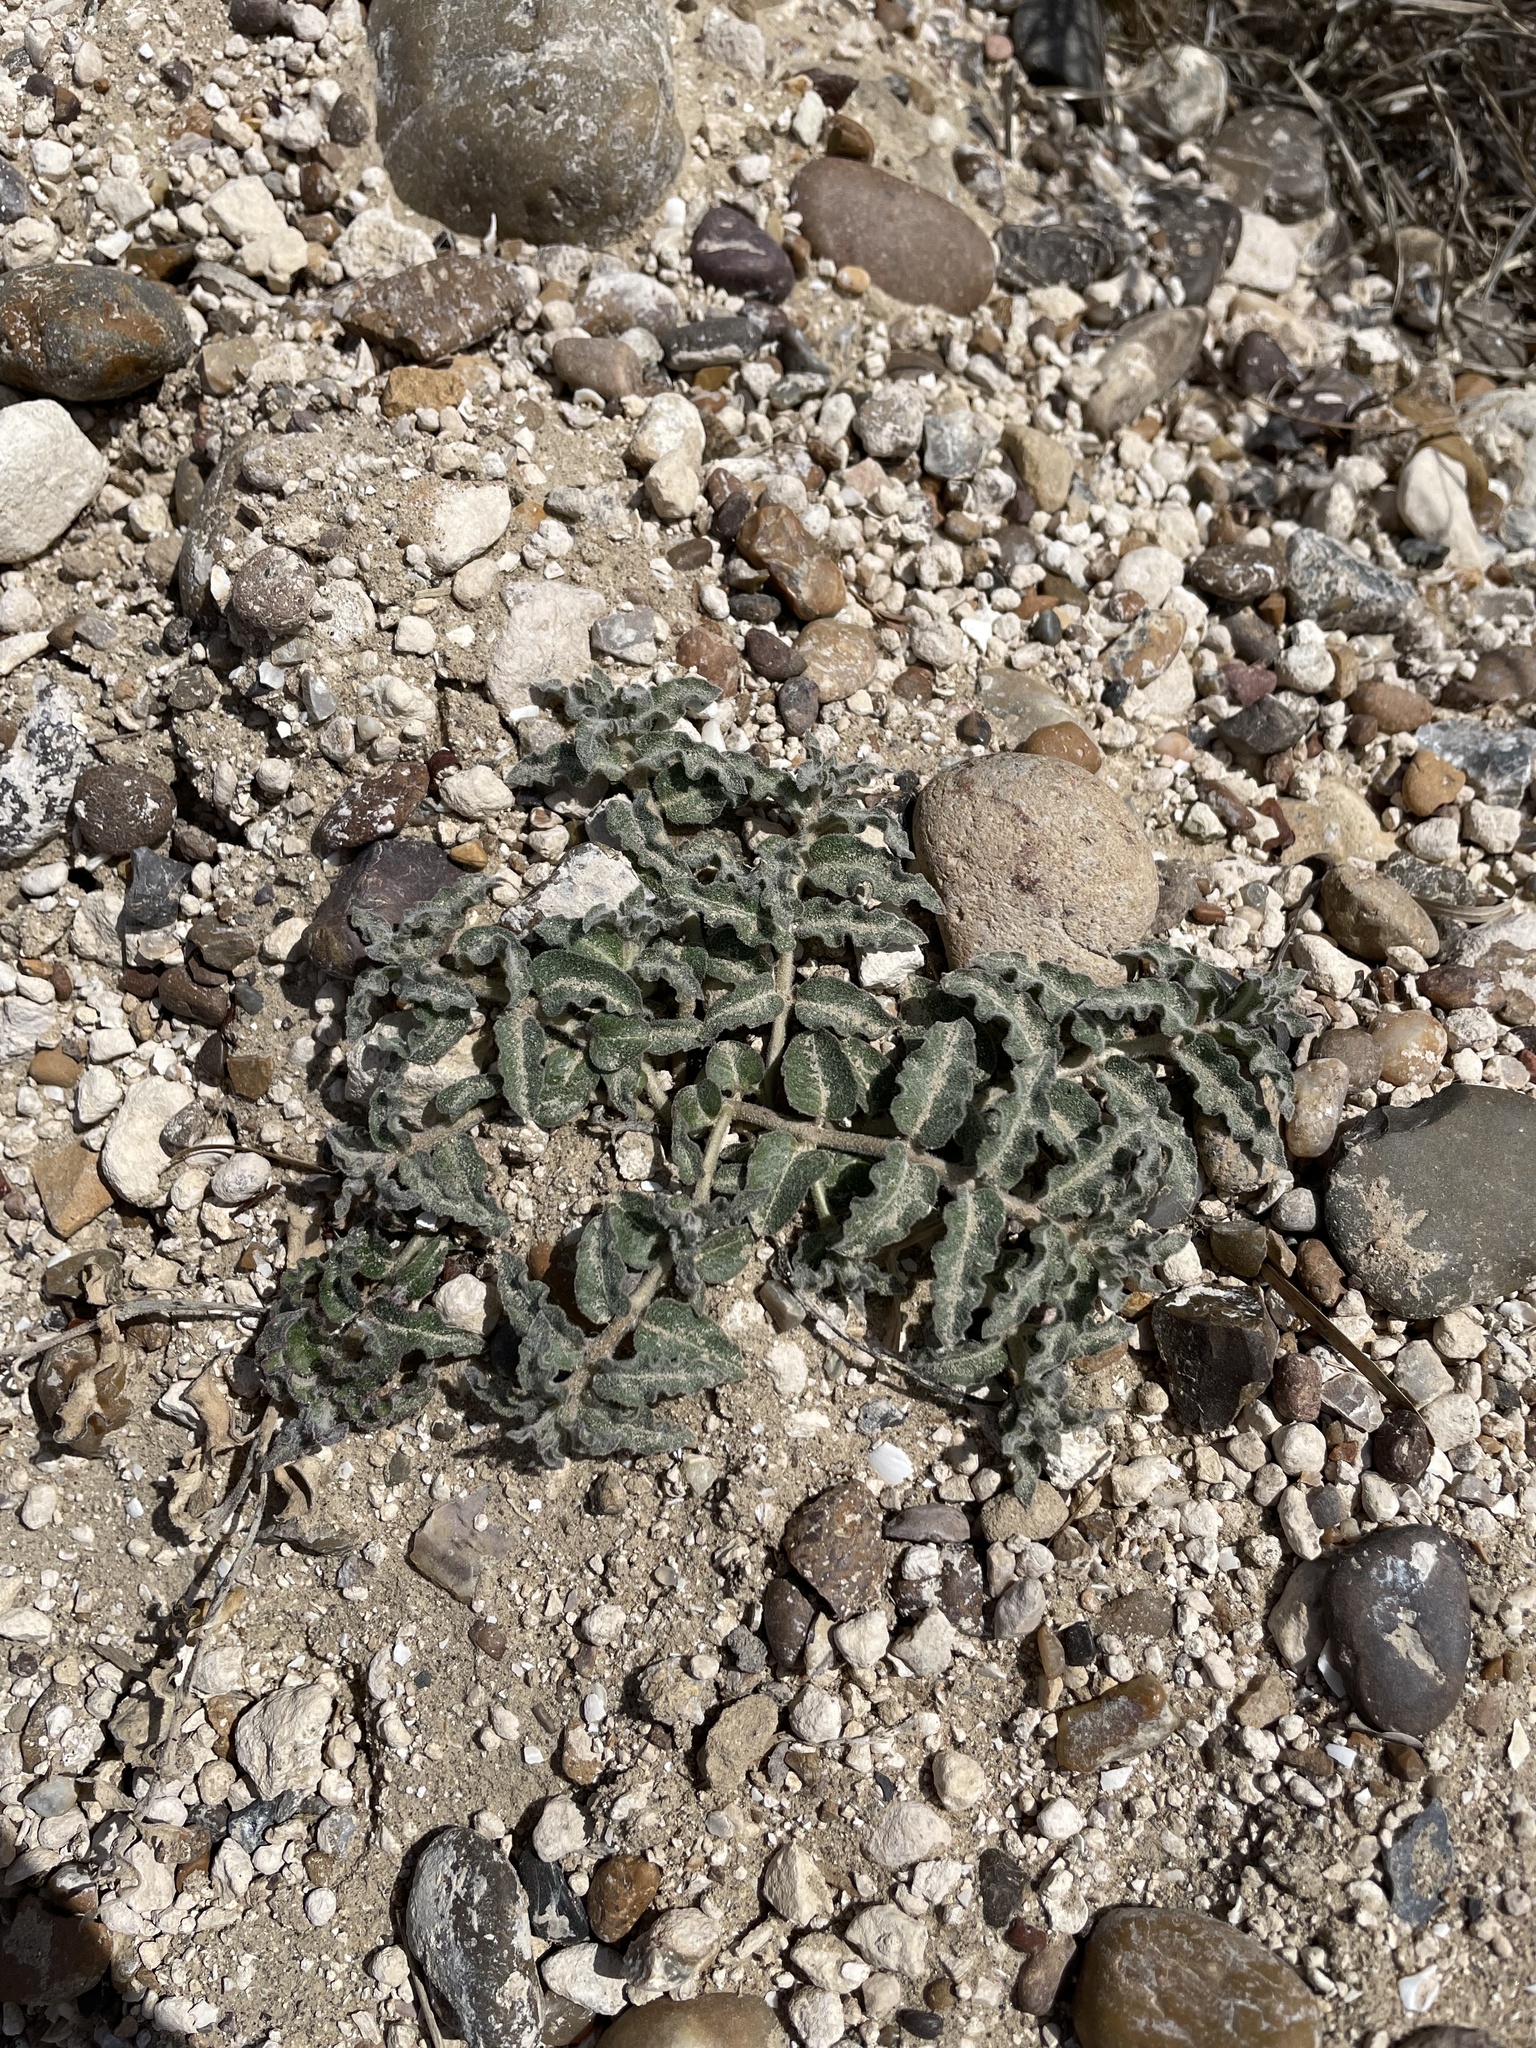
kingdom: Plantae
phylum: Tracheophyta
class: Magnoliopsida
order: Gentianales
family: Apocynaceae
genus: Asclepias
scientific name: Asclepias prostrata
